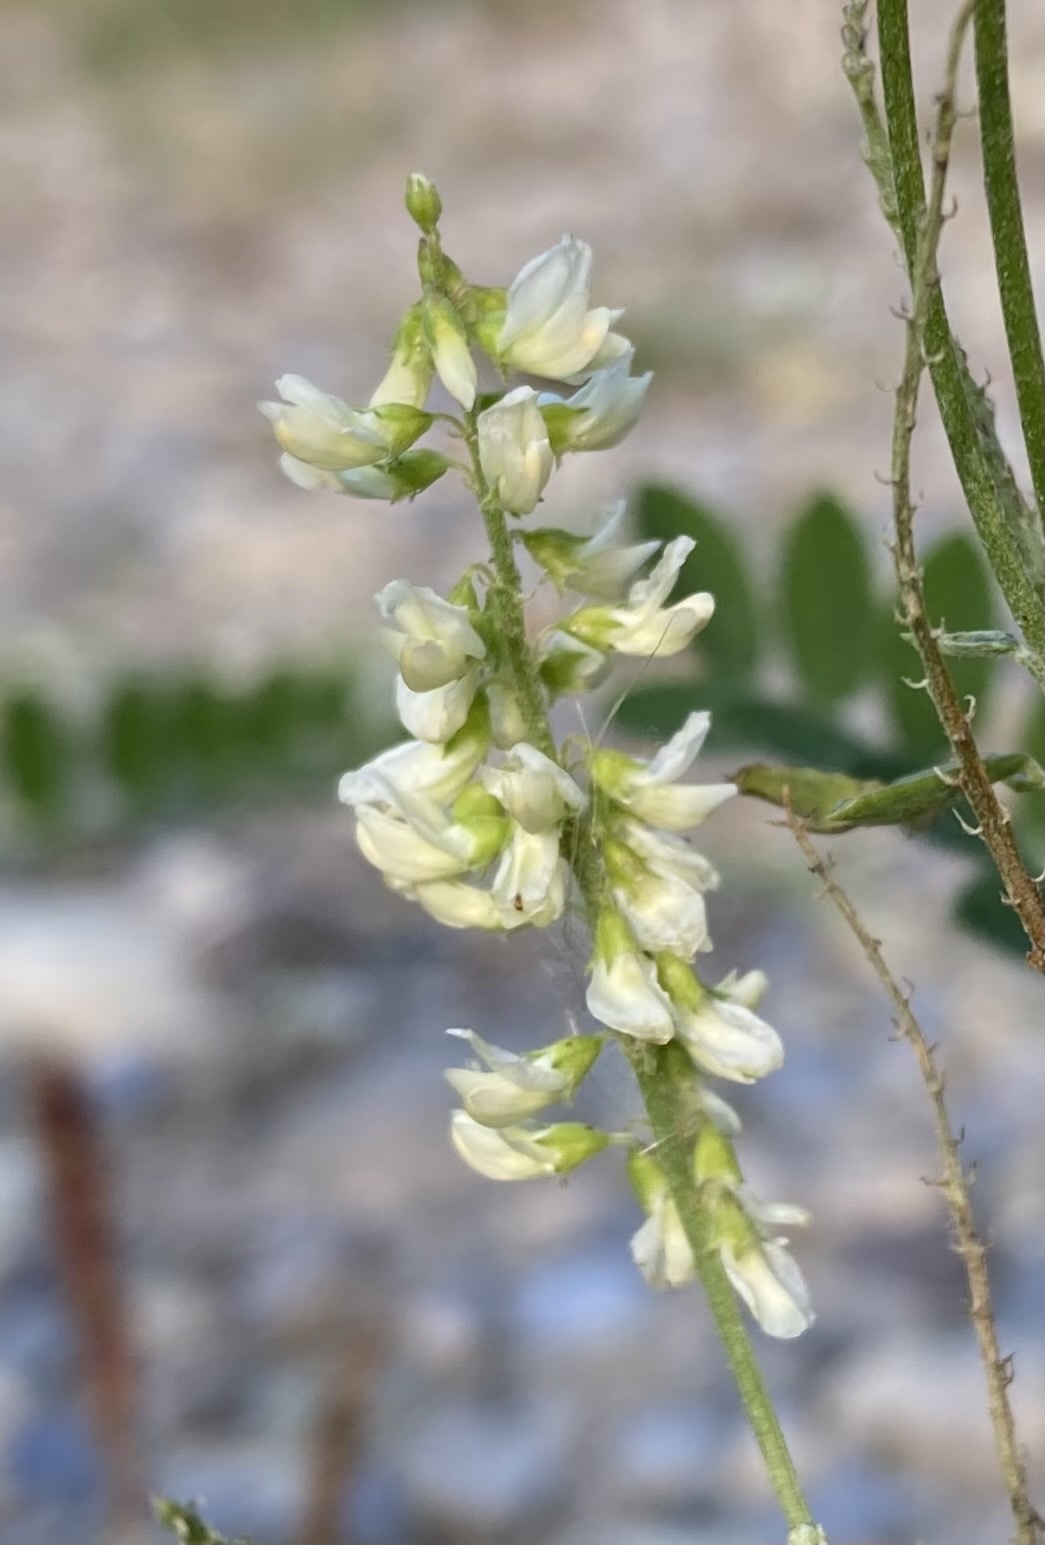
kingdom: Plantae
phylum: Tracheophyta
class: Magnoliopsida
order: Fabales
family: Fabaceae
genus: Melilotus
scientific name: Melilotus albus
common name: White melilot
